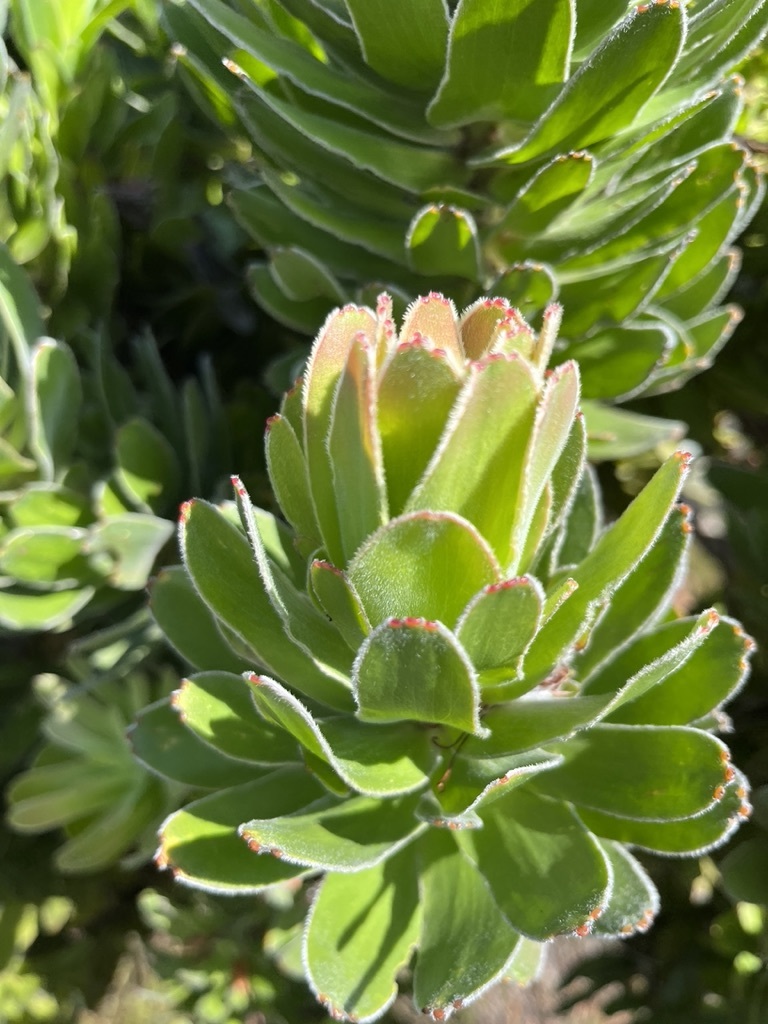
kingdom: Plantae
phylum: Tracheophyta
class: Magnoliopsida
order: Proteales
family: Proteaceae
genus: Mimetes
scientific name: Mimetes fimbriifolius
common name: Fringed bottlebrush
